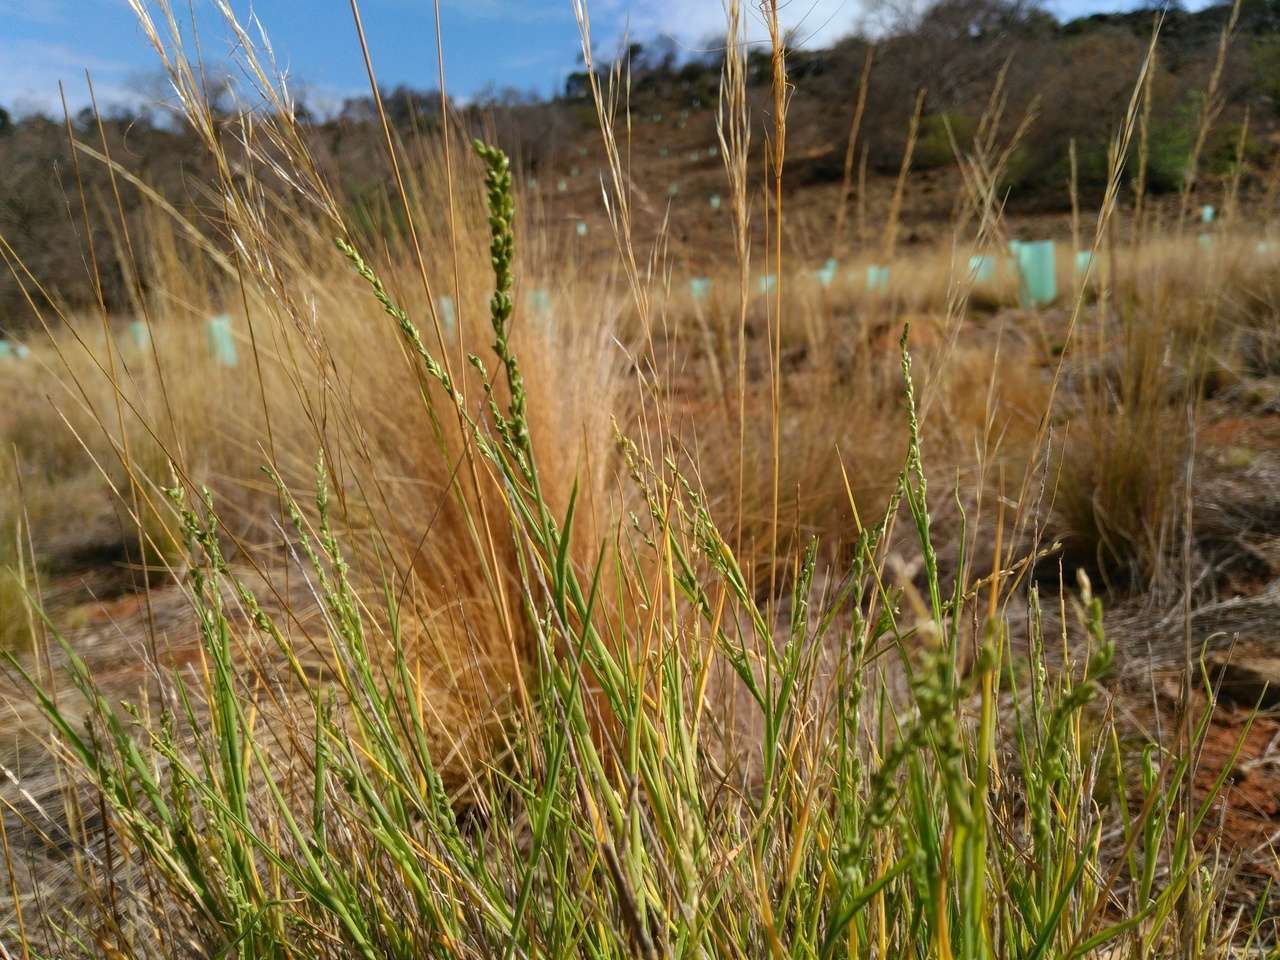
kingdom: Plantae
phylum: Tracheophyta
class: Liliopsida
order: Poales
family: Poaceae
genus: Setaria
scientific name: Setaria constricta
